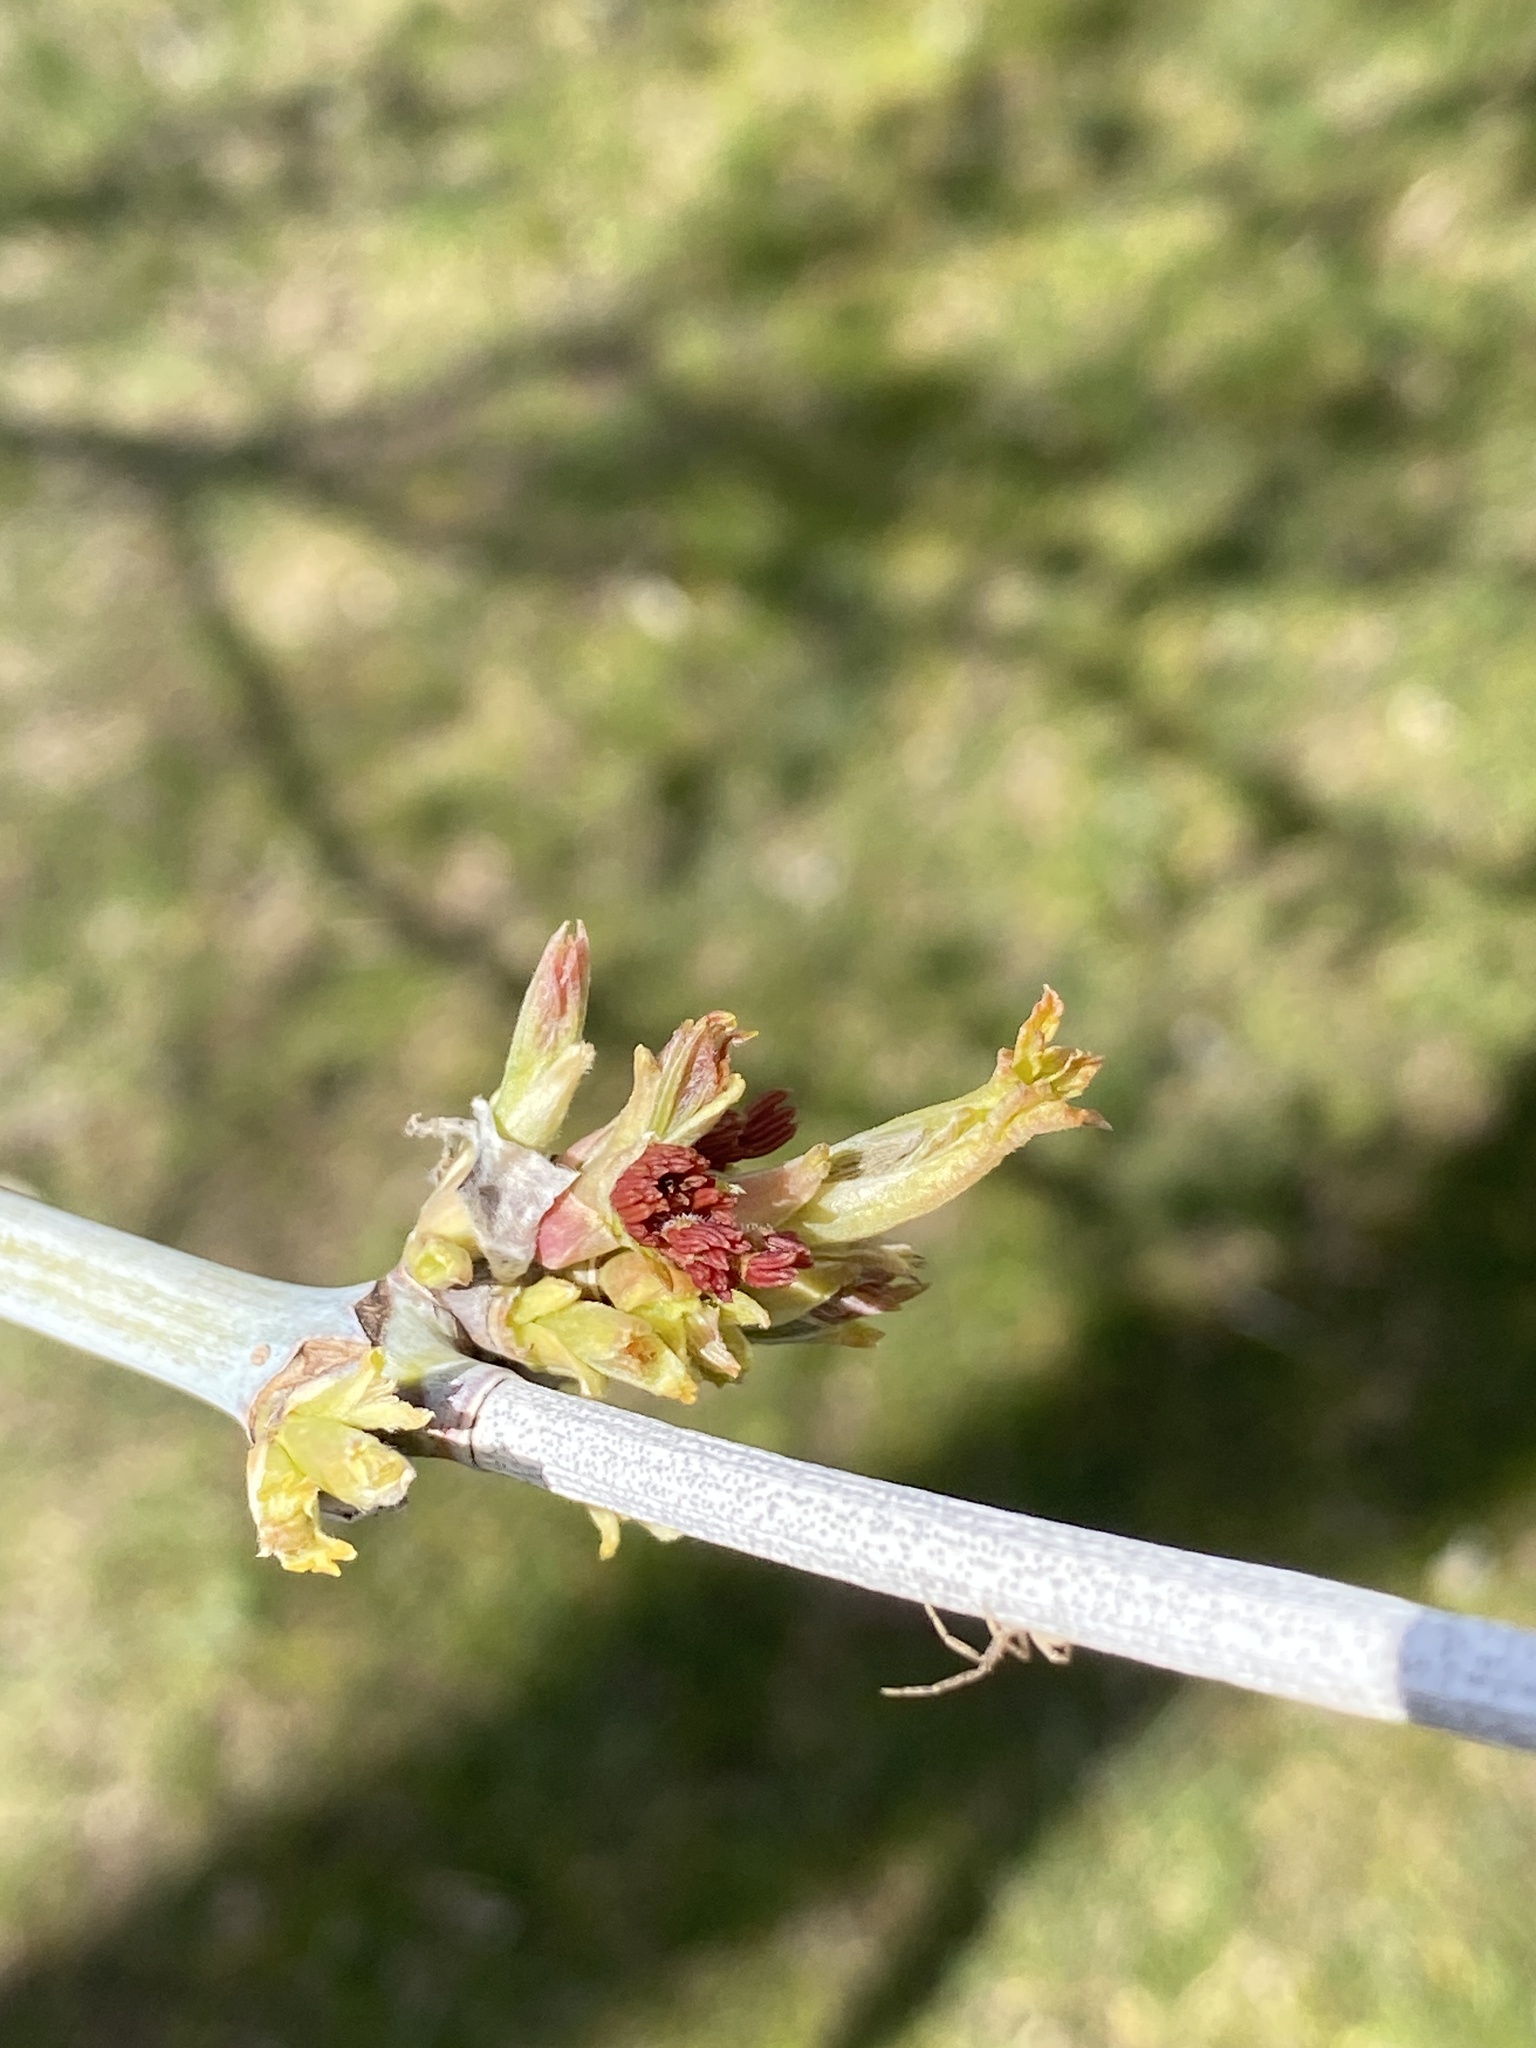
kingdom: Plantae
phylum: Tracheophyta
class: Magnoliopsida
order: Sapindales
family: Sapindaceae
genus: Acer
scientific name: Acer negundo
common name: Ashleaf maple
